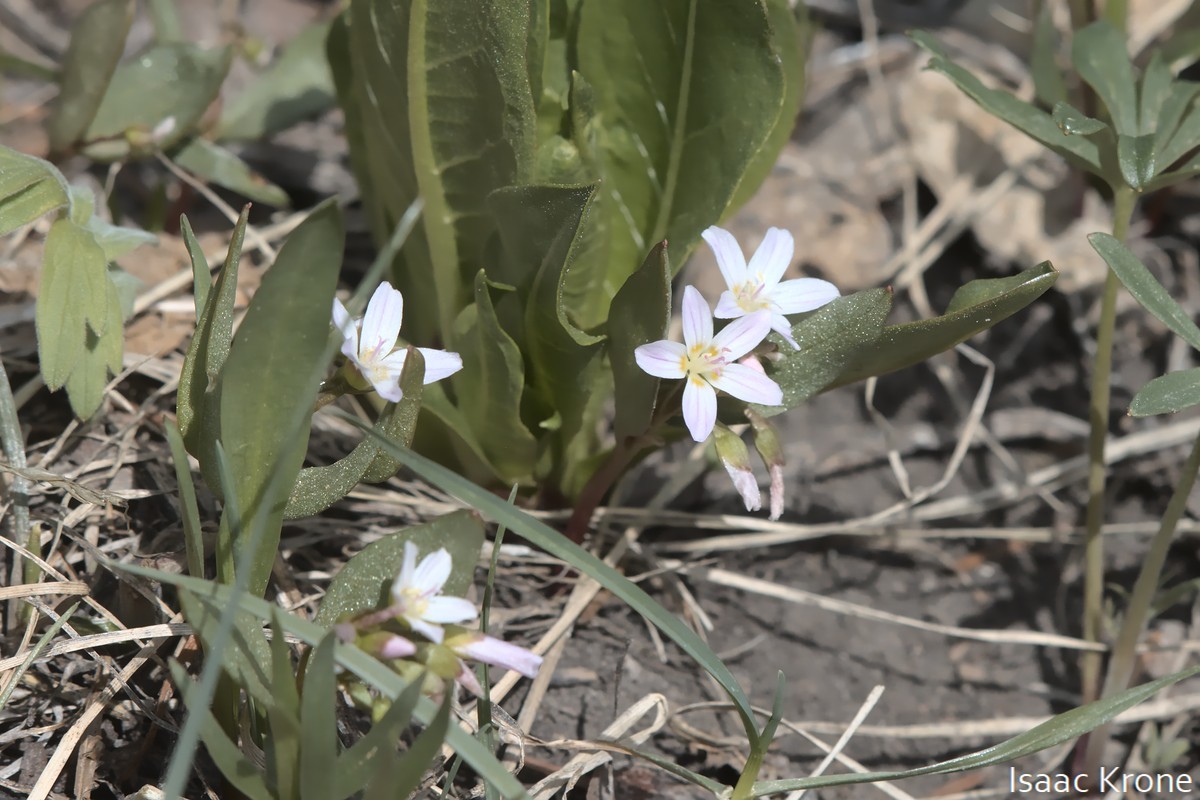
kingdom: Plantae
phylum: Tracheophyta
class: Magnoliopsida
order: Caryophyllales
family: Montiaceae
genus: Claytonia
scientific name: Claytonia lanceolata
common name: Western spring-beauty
